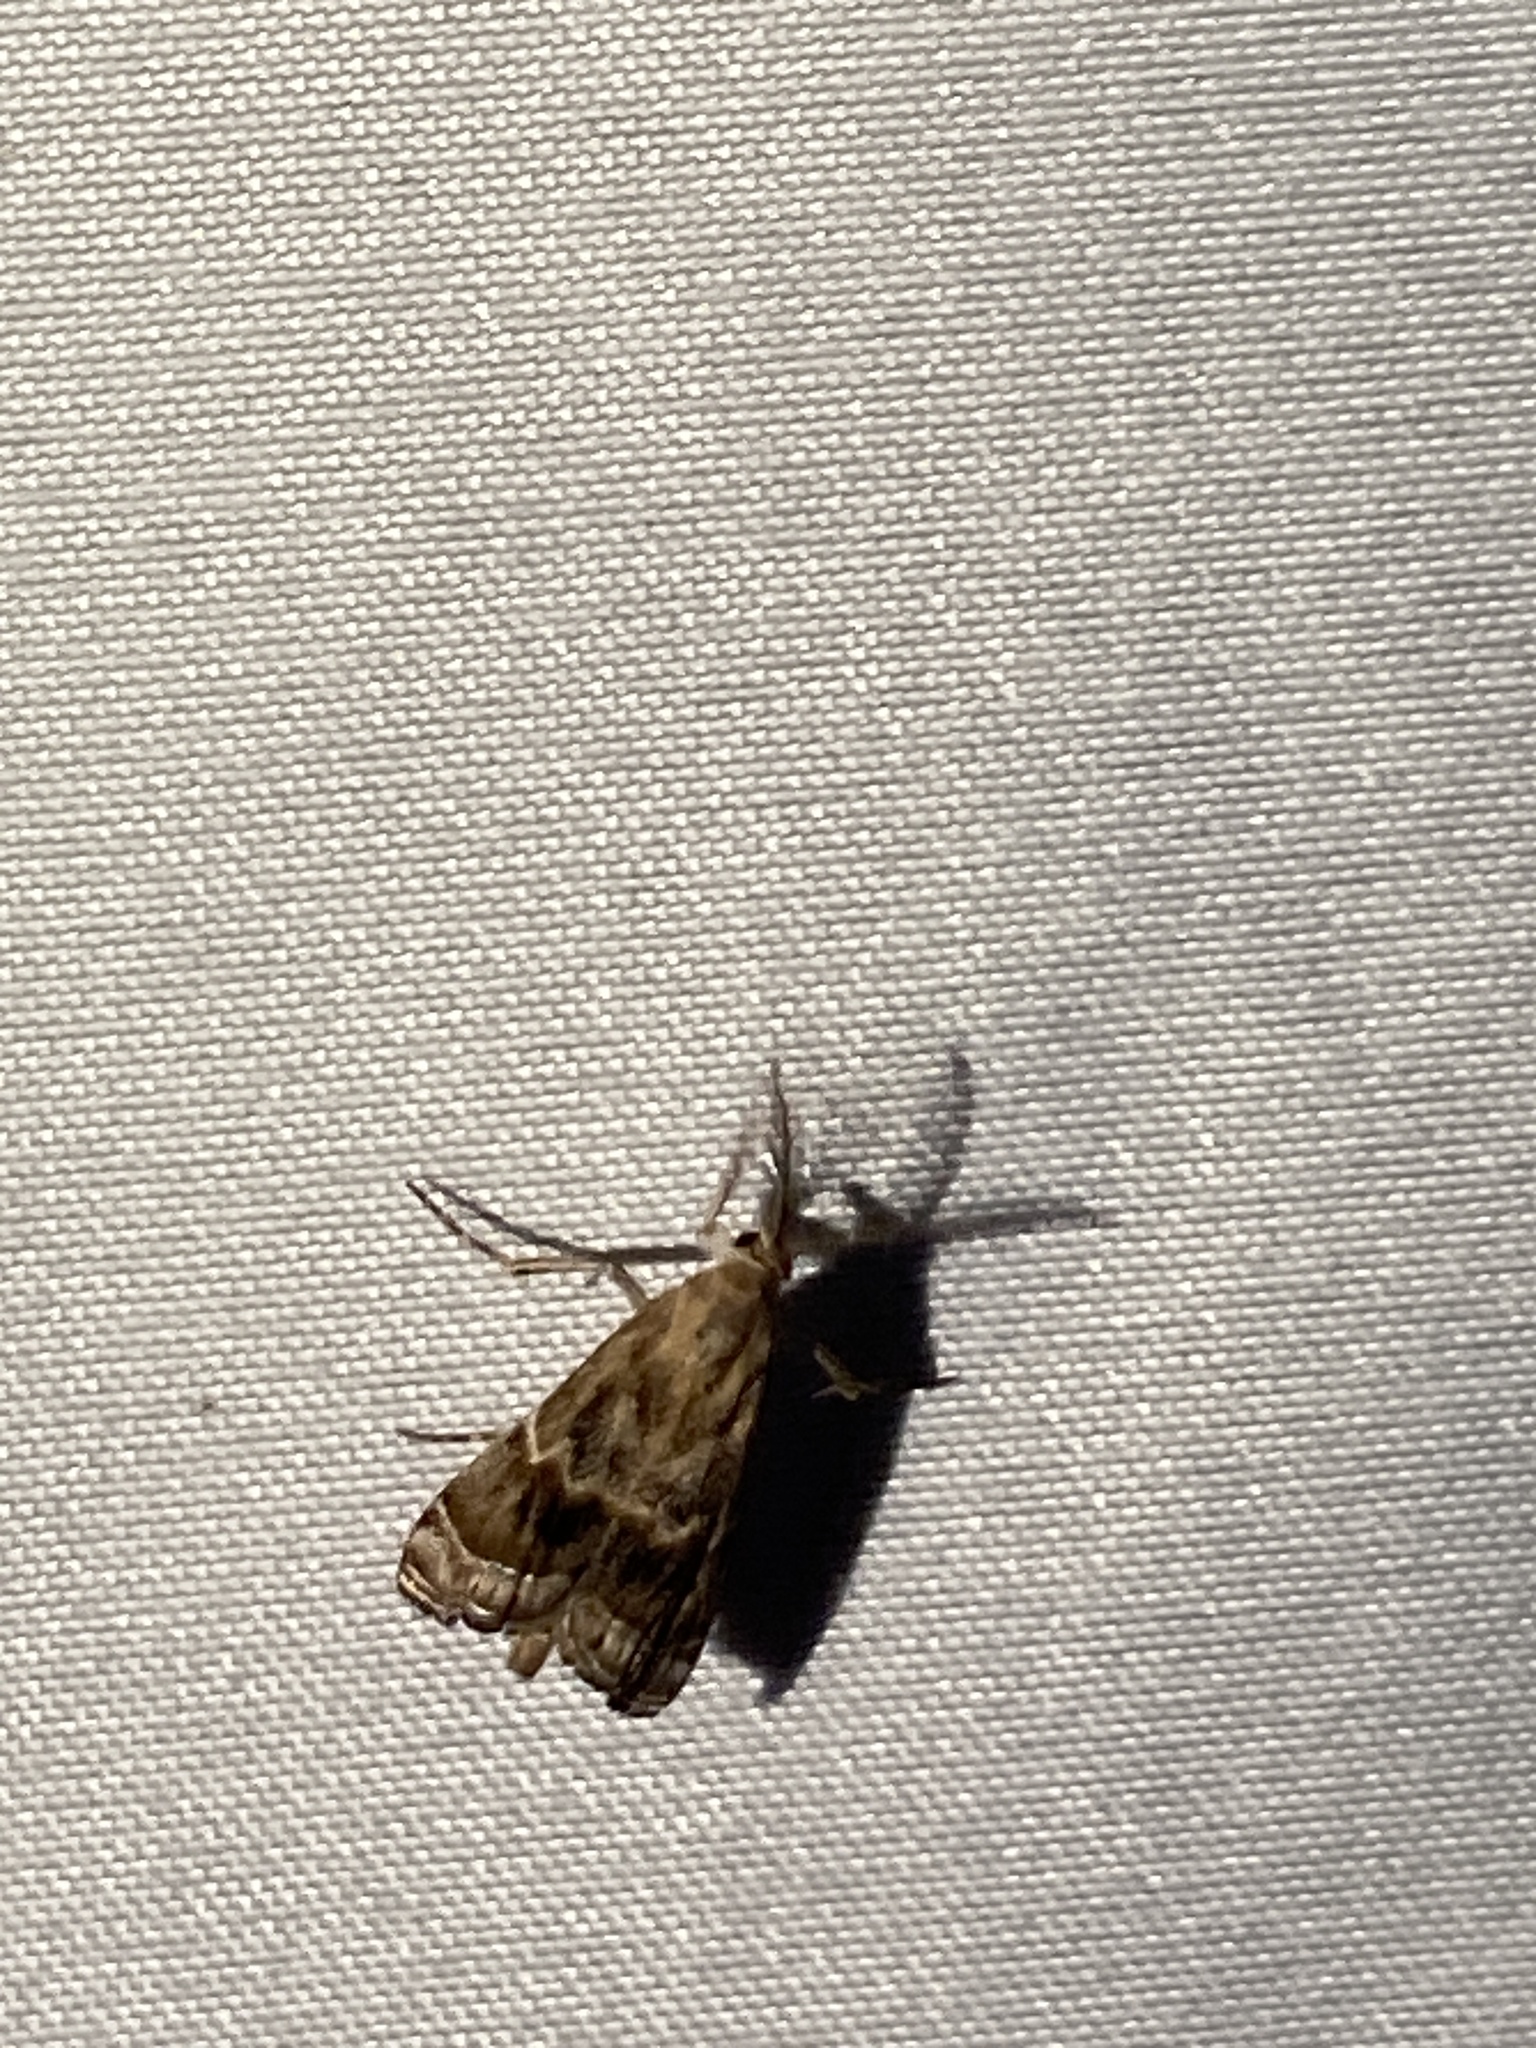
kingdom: Animalia
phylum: Arthropoda
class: Insecta
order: Lepidoptera
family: Crambidae
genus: Prionapteryx
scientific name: Prionapteryx
